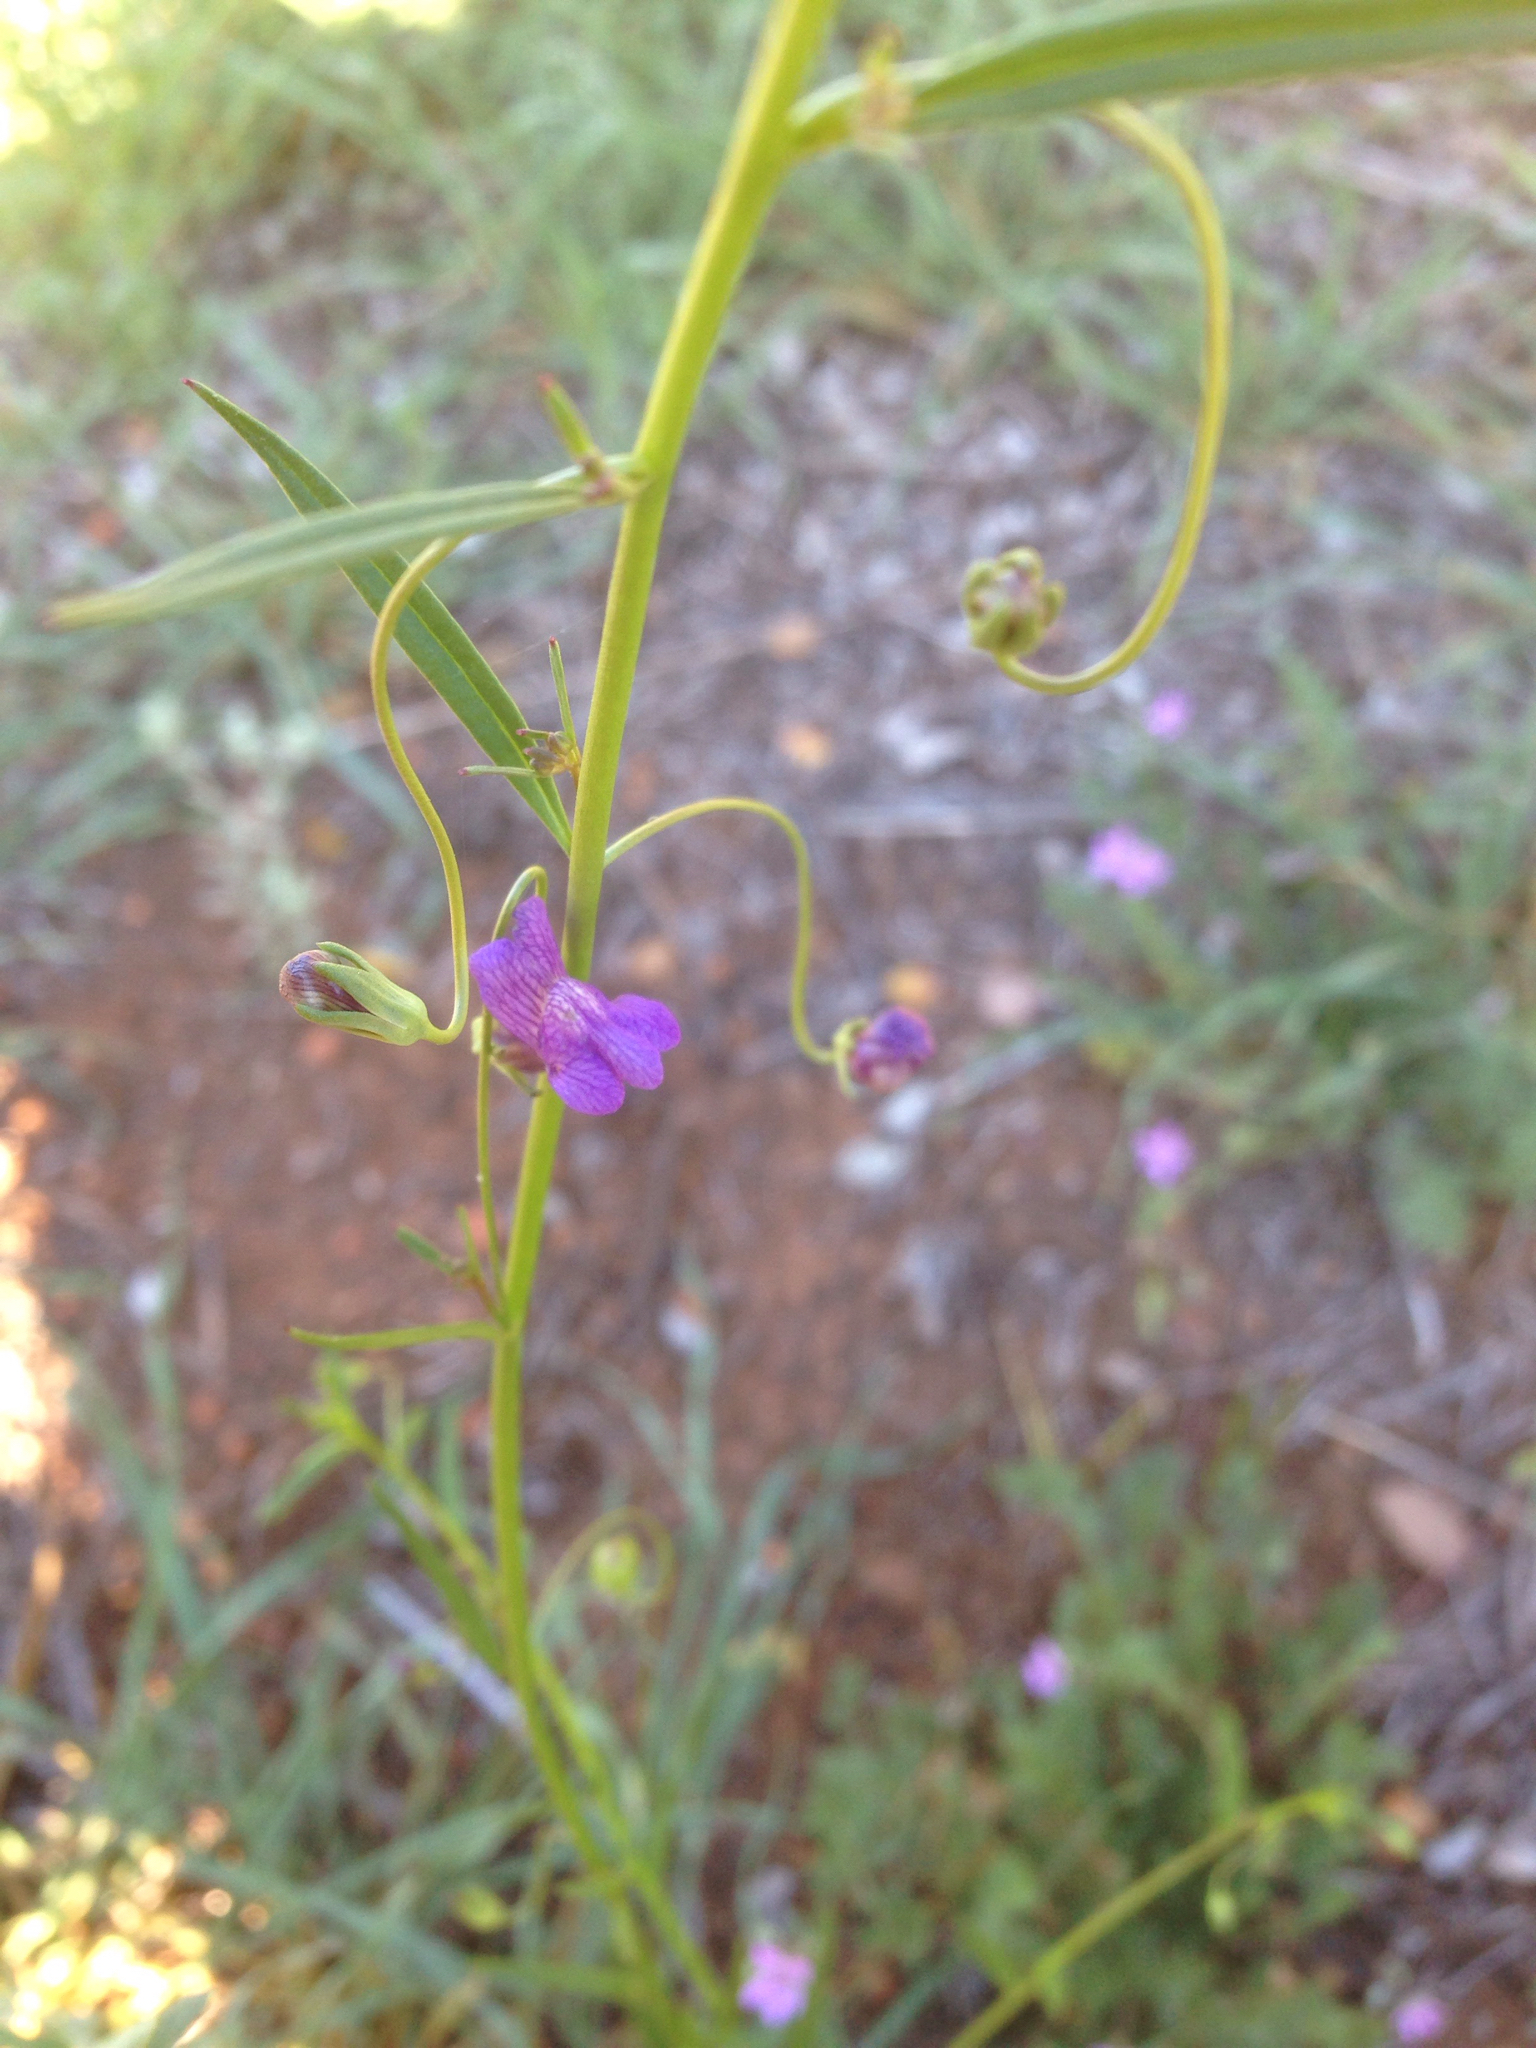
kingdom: Plantae
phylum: Tracheophyta
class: Magnoliopsida
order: Lamiales
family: Plantaginaceae
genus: Neogaerrhinum
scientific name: Neogaerrhinum strictum
